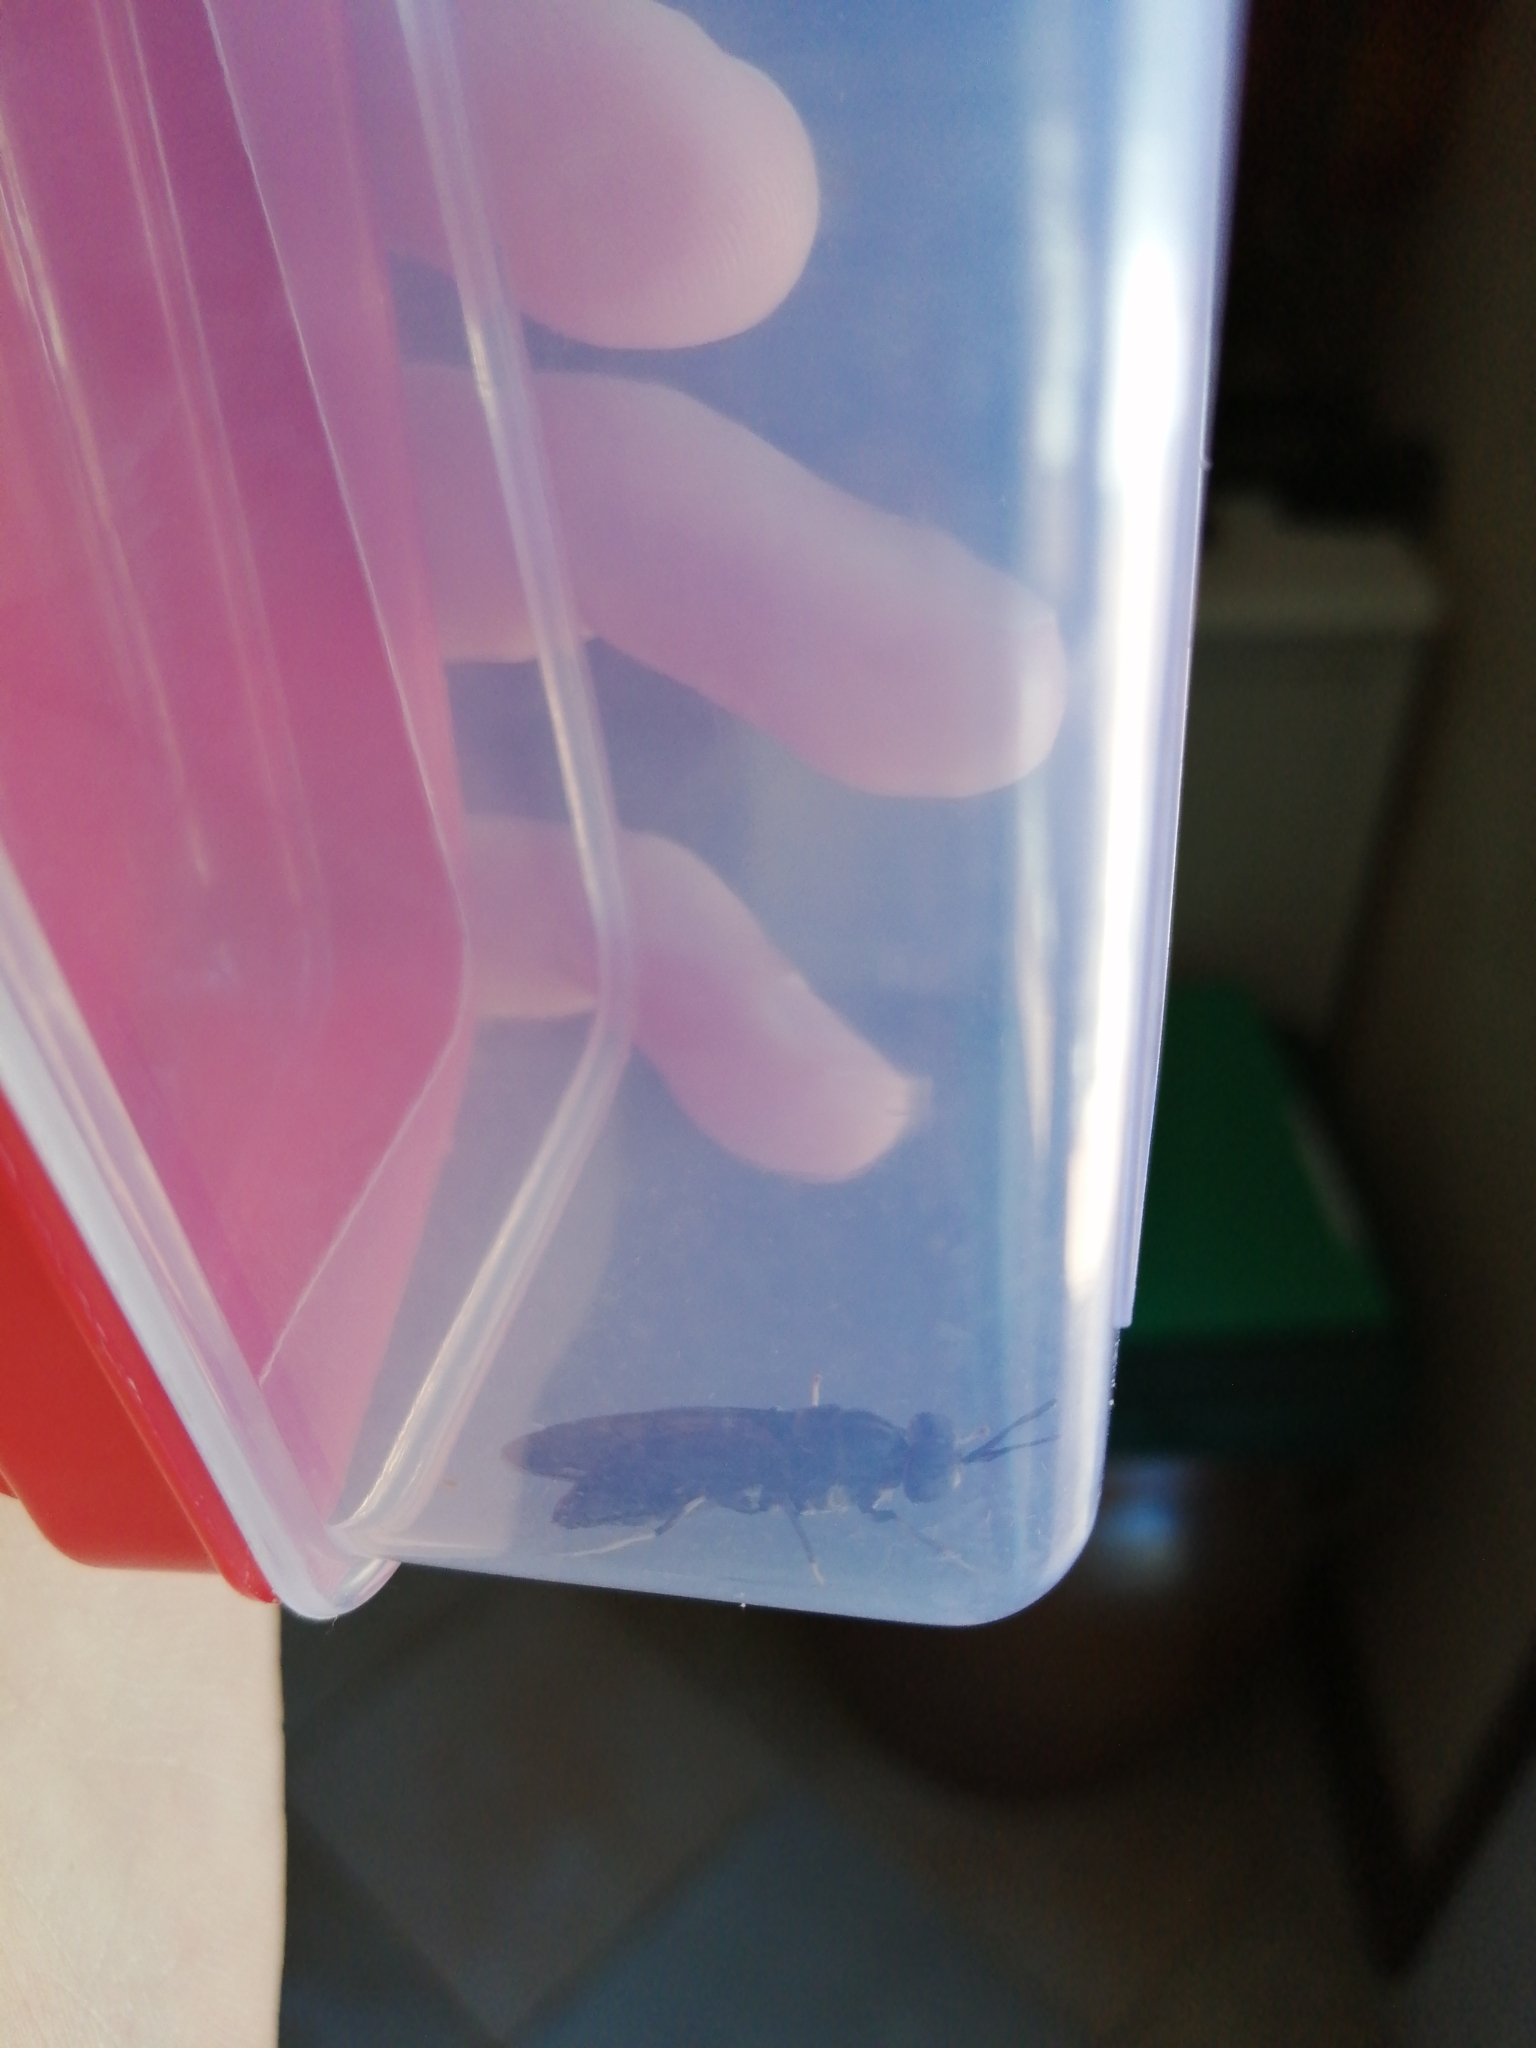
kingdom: Animalia
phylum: Arthropoda
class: Insecta
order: Diptera
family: Stratiomyidae
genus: Hermetia
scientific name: Hermetia illucens
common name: Black soldier fly
